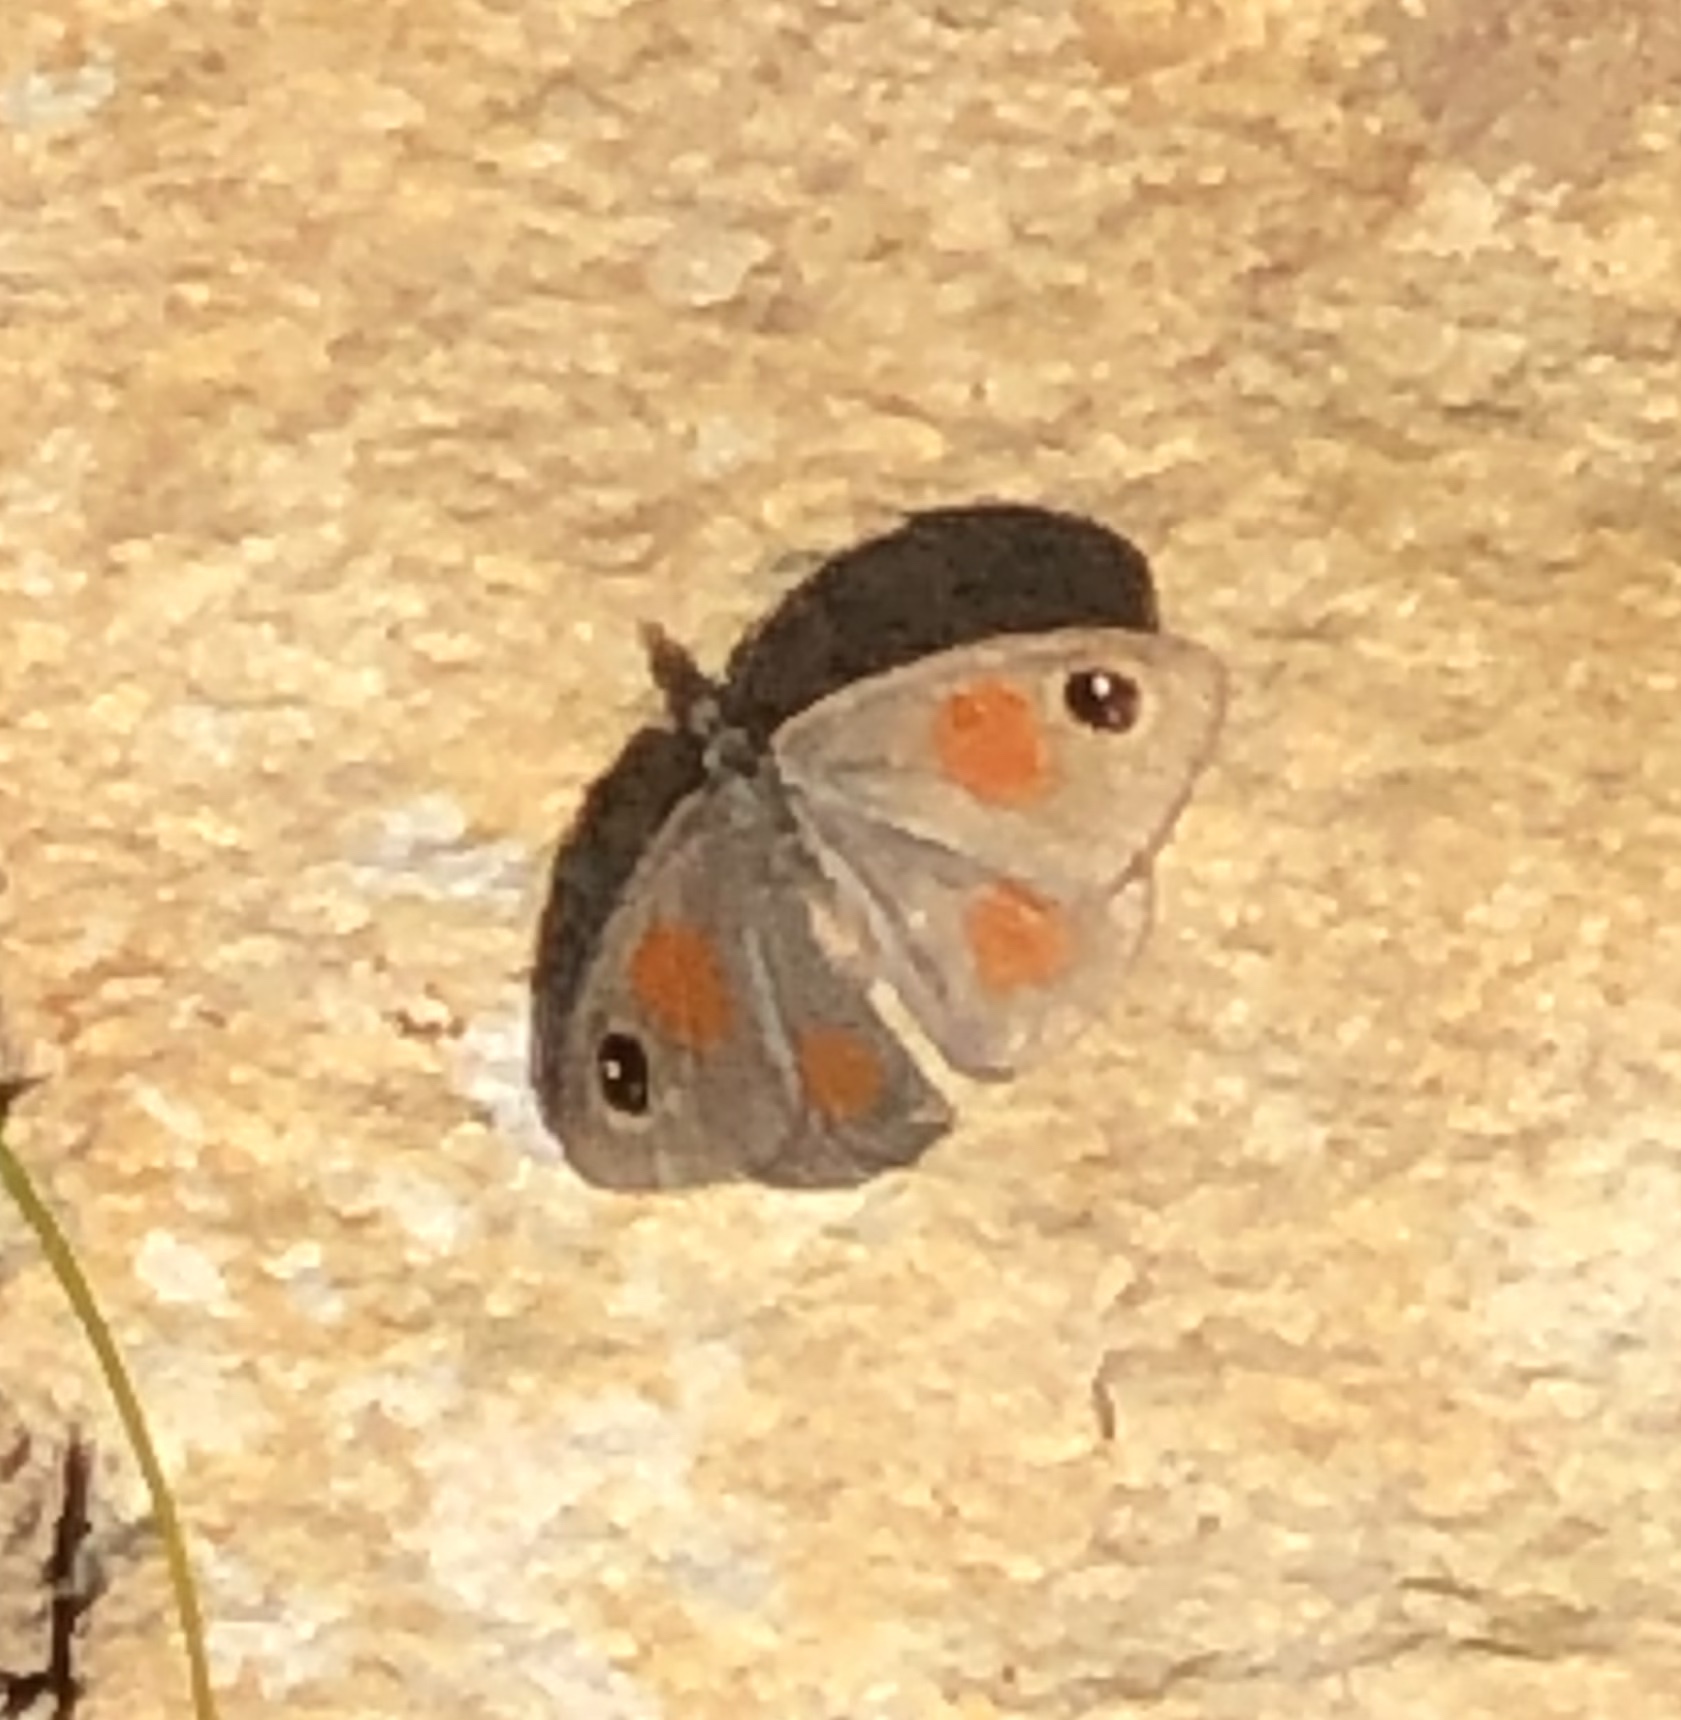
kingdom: Animalia
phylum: Arthropoda
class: Insecta
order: Lepidoptera
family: Nymphalidae
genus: Stygionympha
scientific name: Stygionympha vigilans
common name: Western hillside brown
